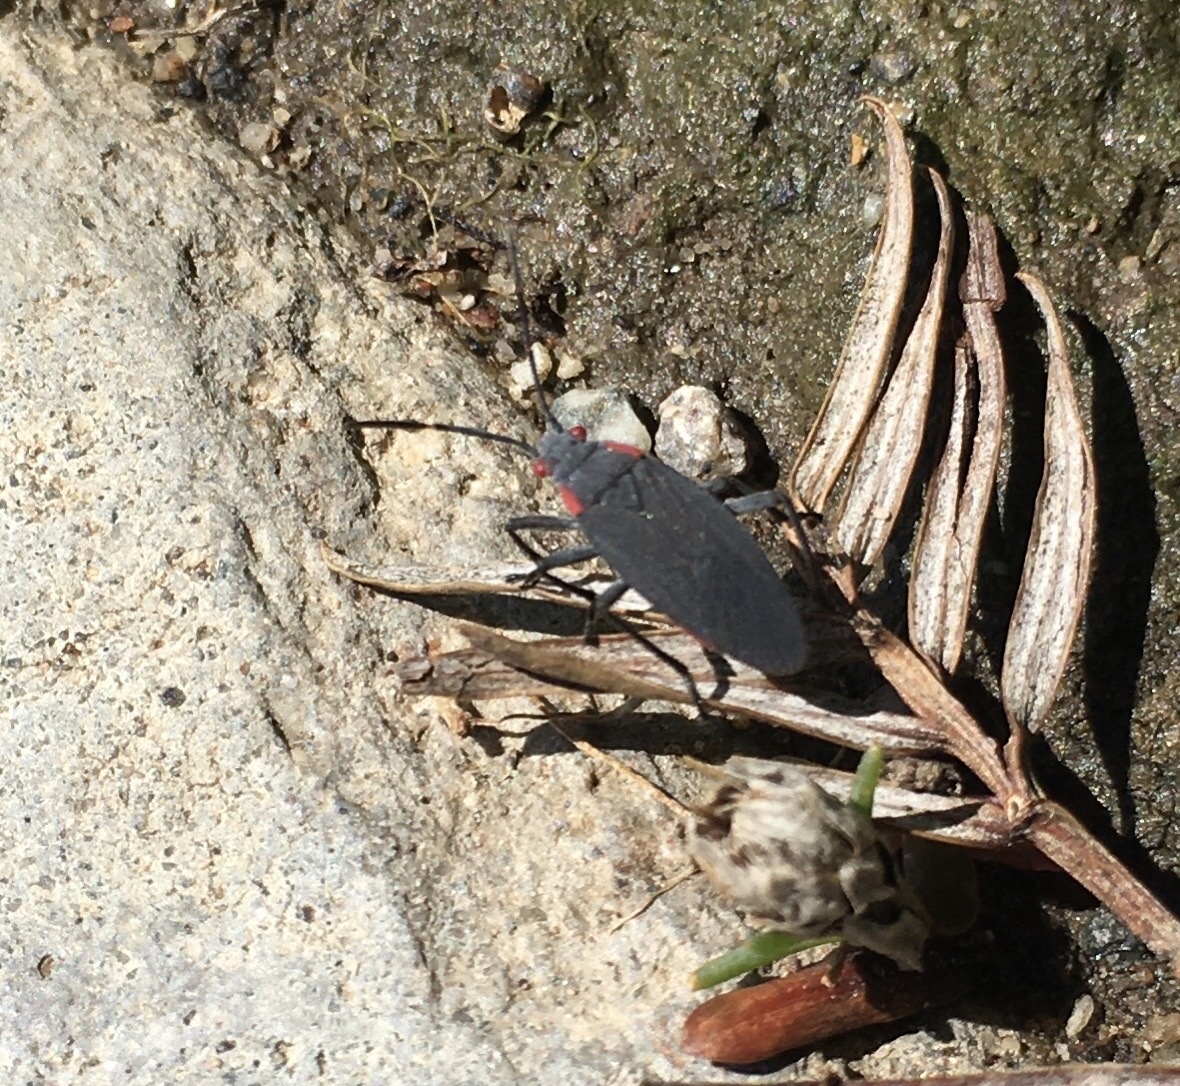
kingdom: Animalia
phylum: Arthropoda
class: Insecta
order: Hemiptera
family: Rhopalidae
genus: Jadera
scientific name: Jadera haematoloma
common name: Red-shouldered bug
